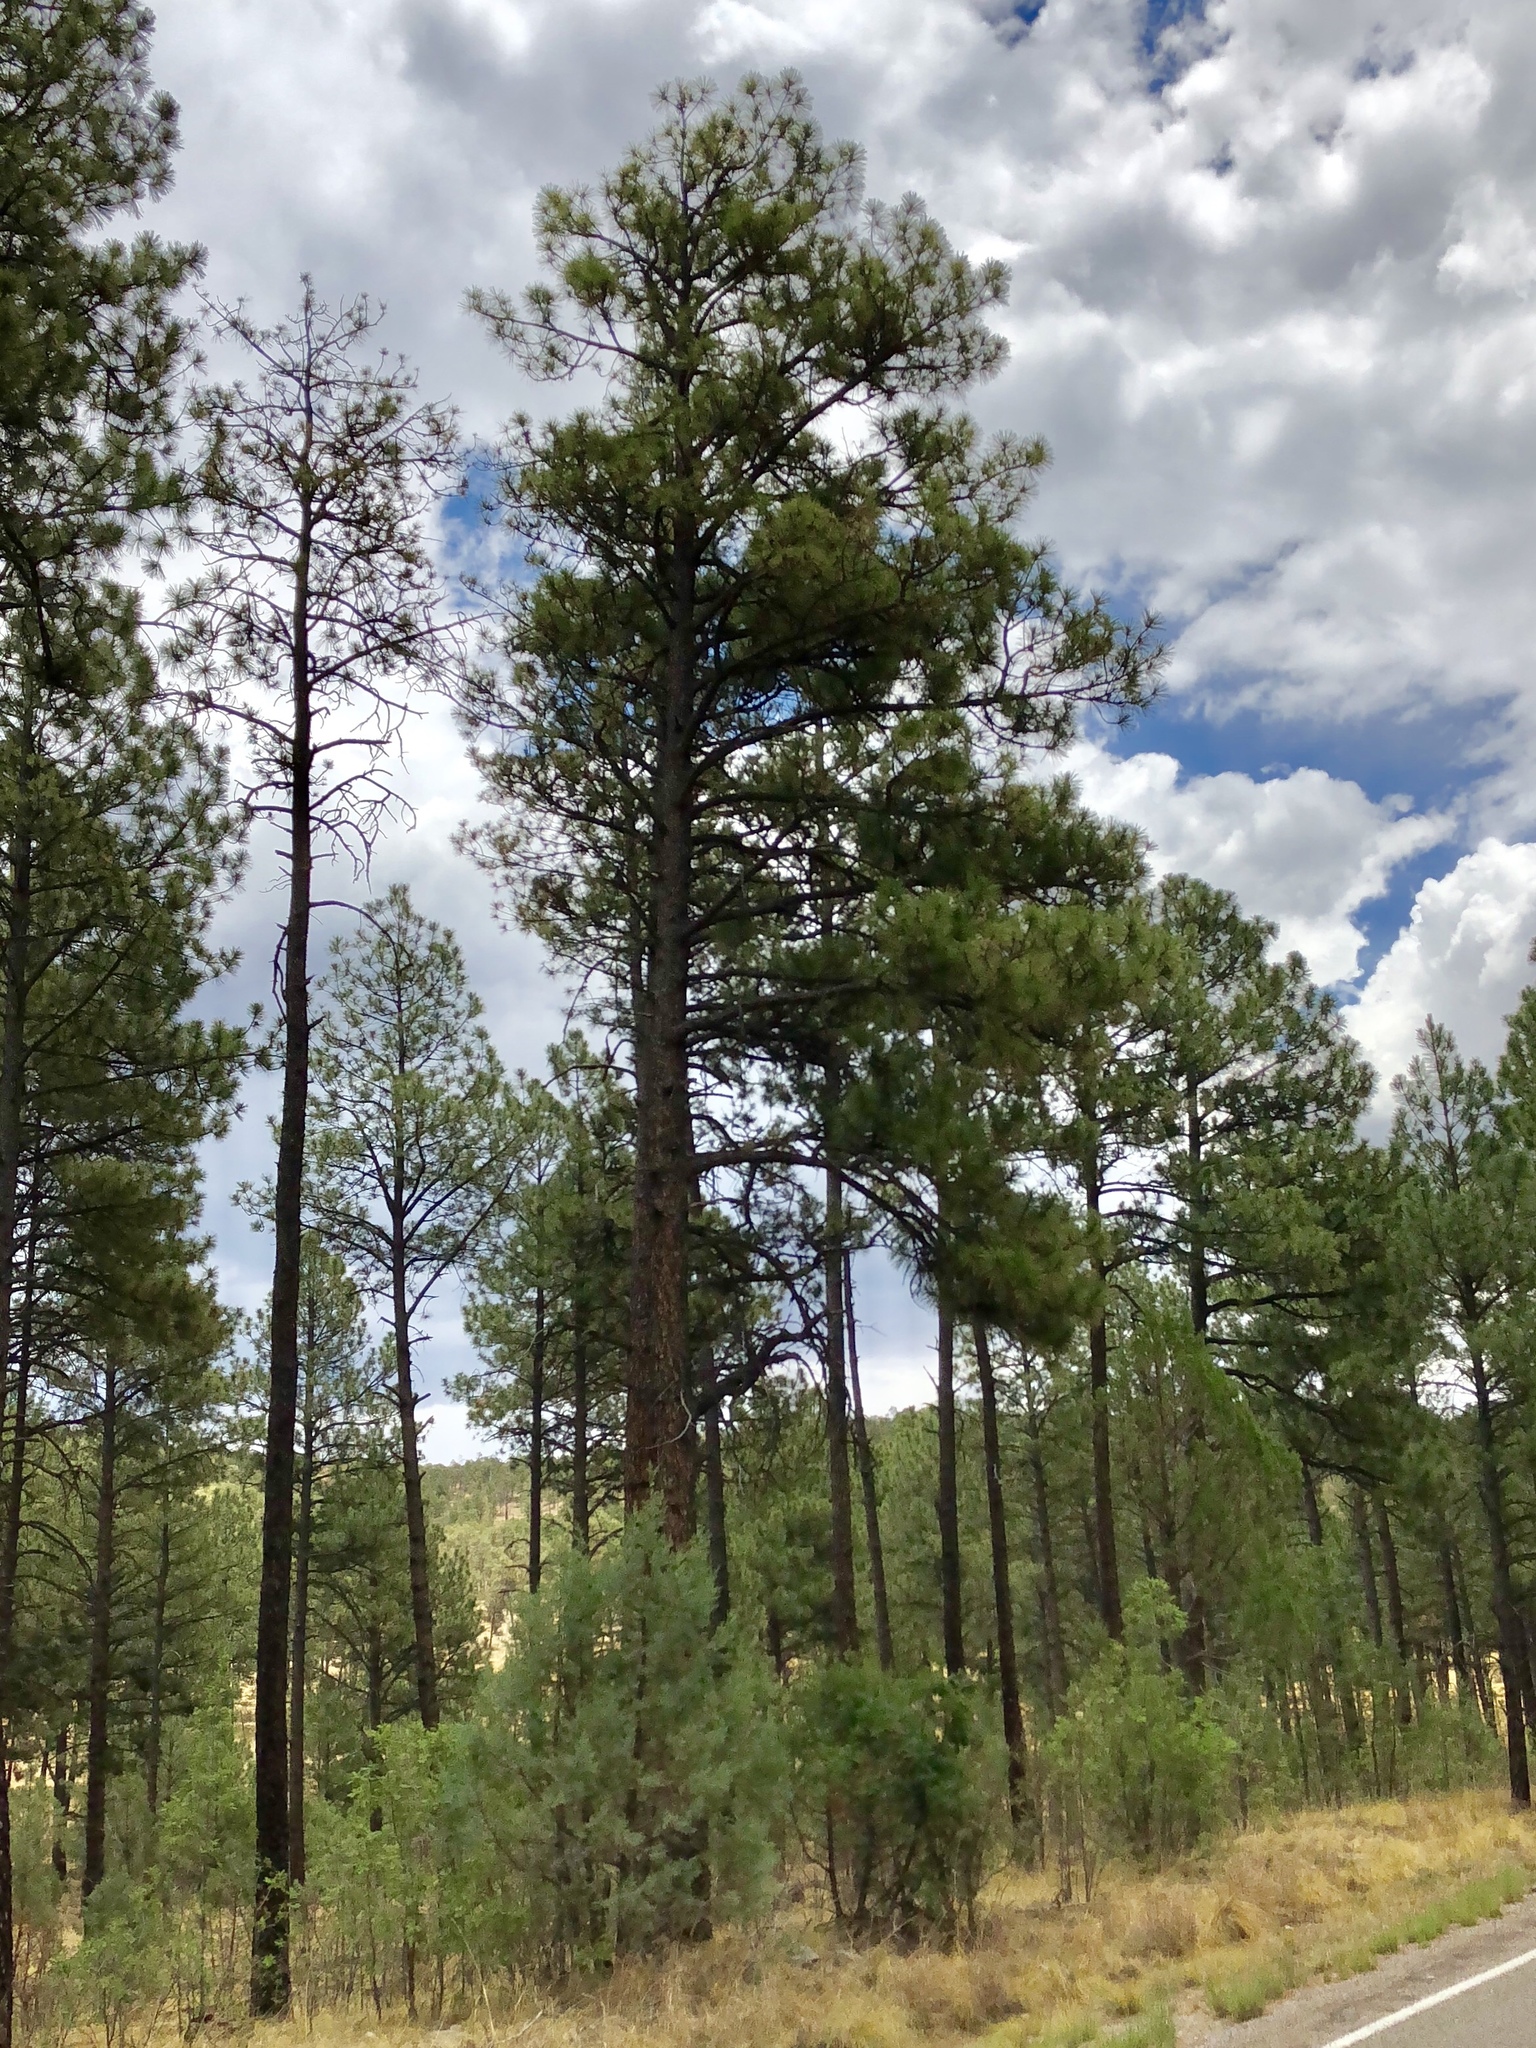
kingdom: Plantae
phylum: Tracheophyta
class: Pinopsida
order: Pinales
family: Pinaceae
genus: Pinus
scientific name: Pinus ponderosa
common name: Western yellow-pine
